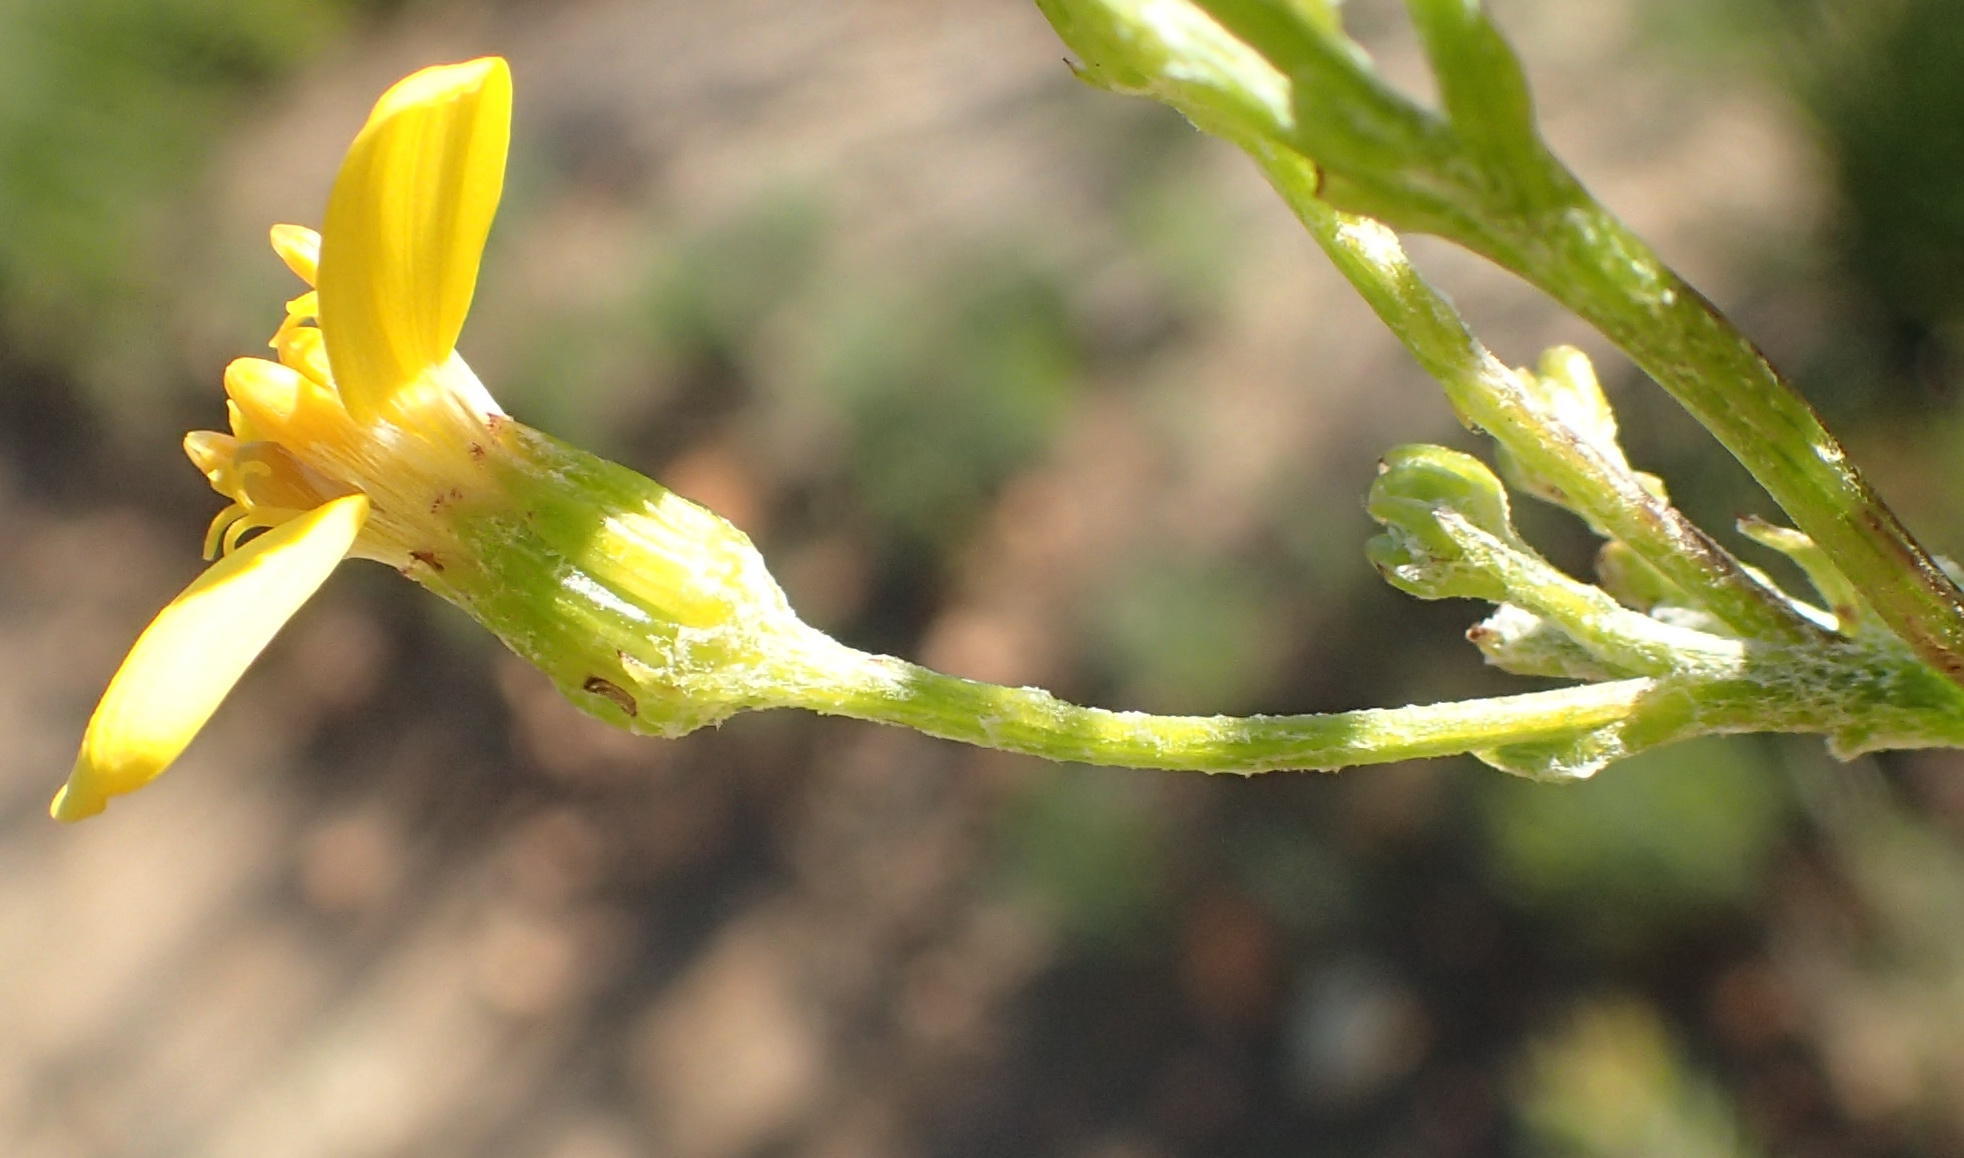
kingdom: Plantae
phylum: Tracheophyta
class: Magnoliopsida
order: Asterales
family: Asteraceae
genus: Senecio
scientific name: Senecio crenatus
